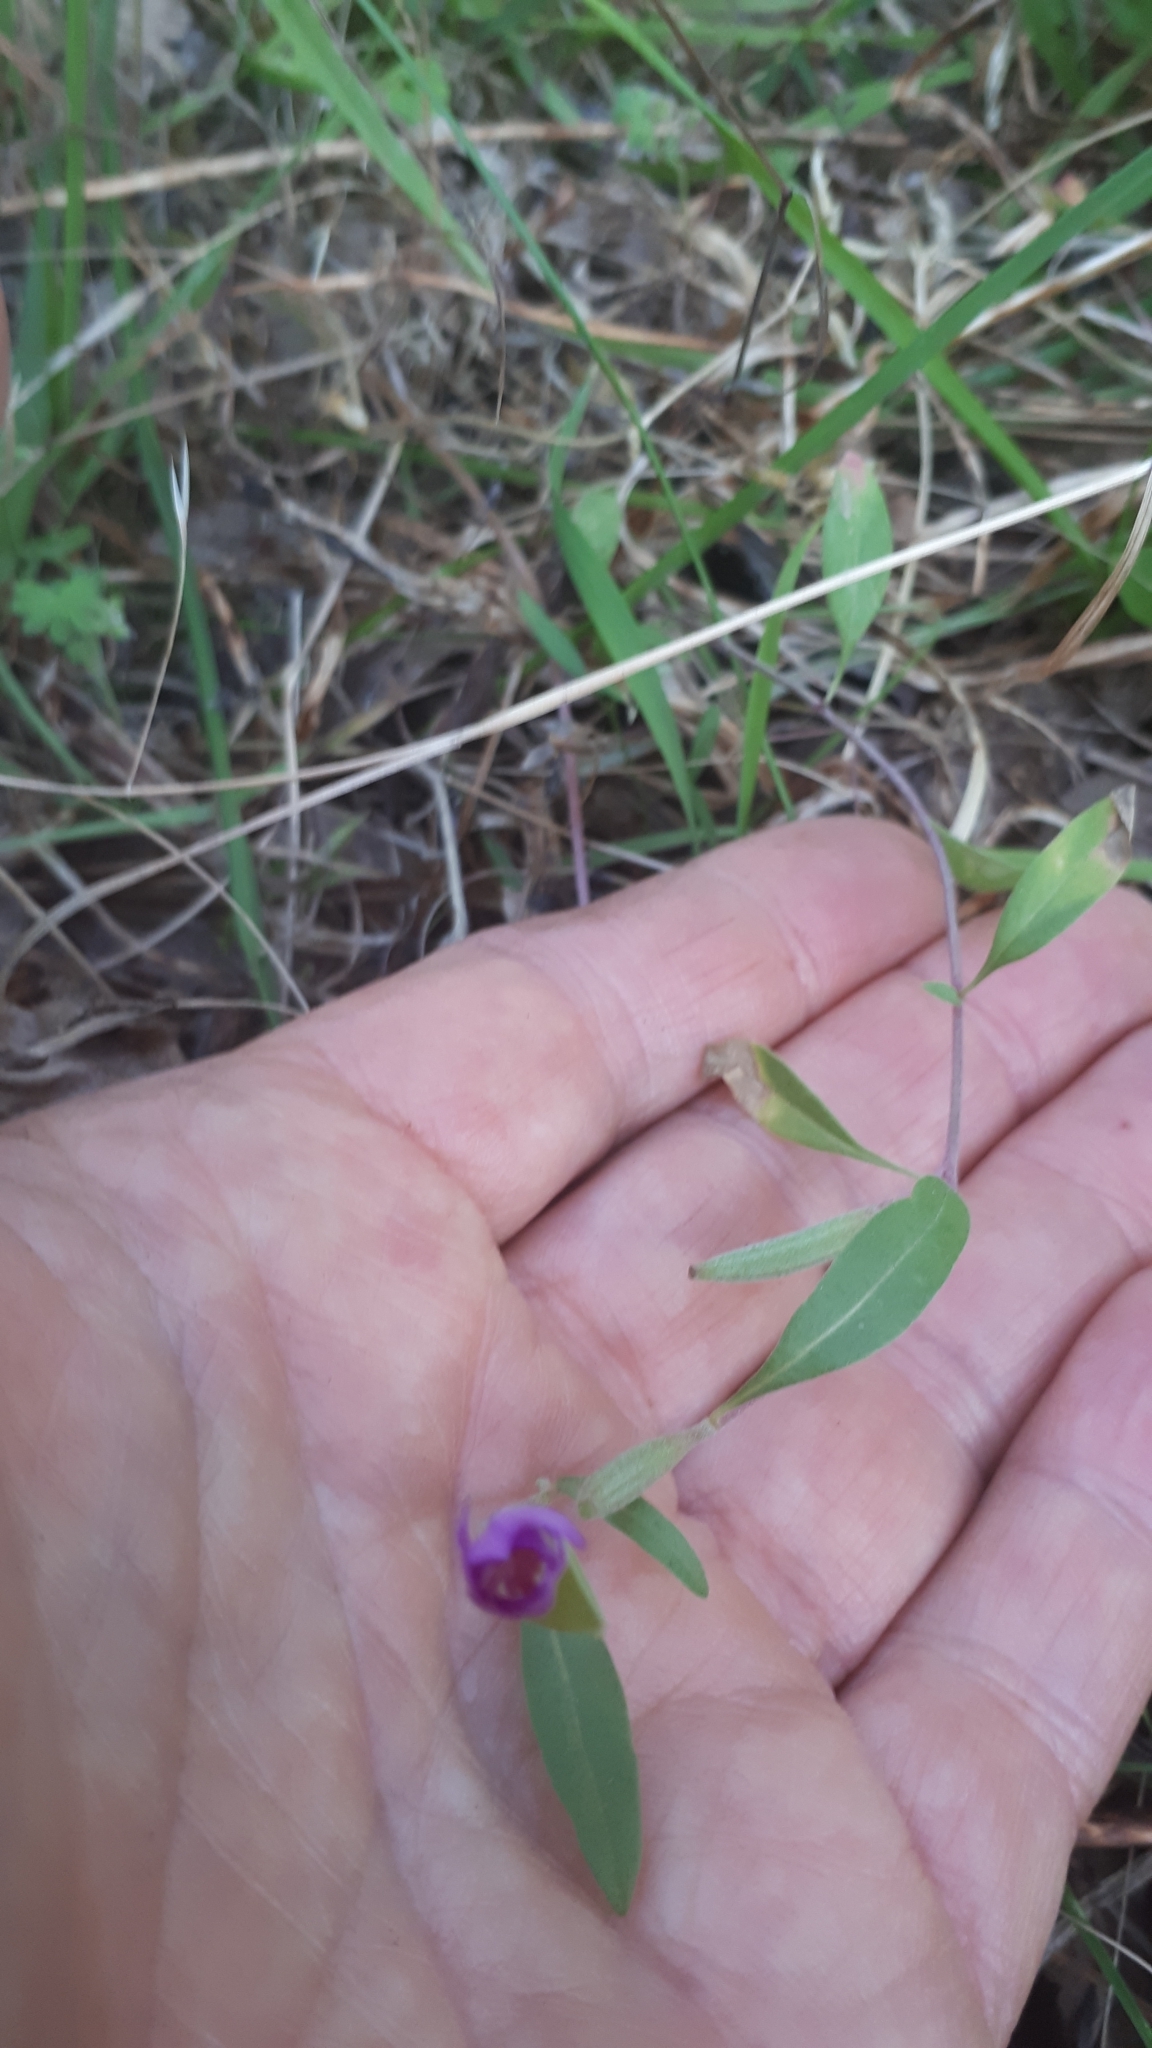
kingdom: Plantae
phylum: Tracheophyta
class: Magnoliopsida
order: Myrtales
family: Onagraceae
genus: Clarkia
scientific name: Clarkia amoena
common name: Godetia
